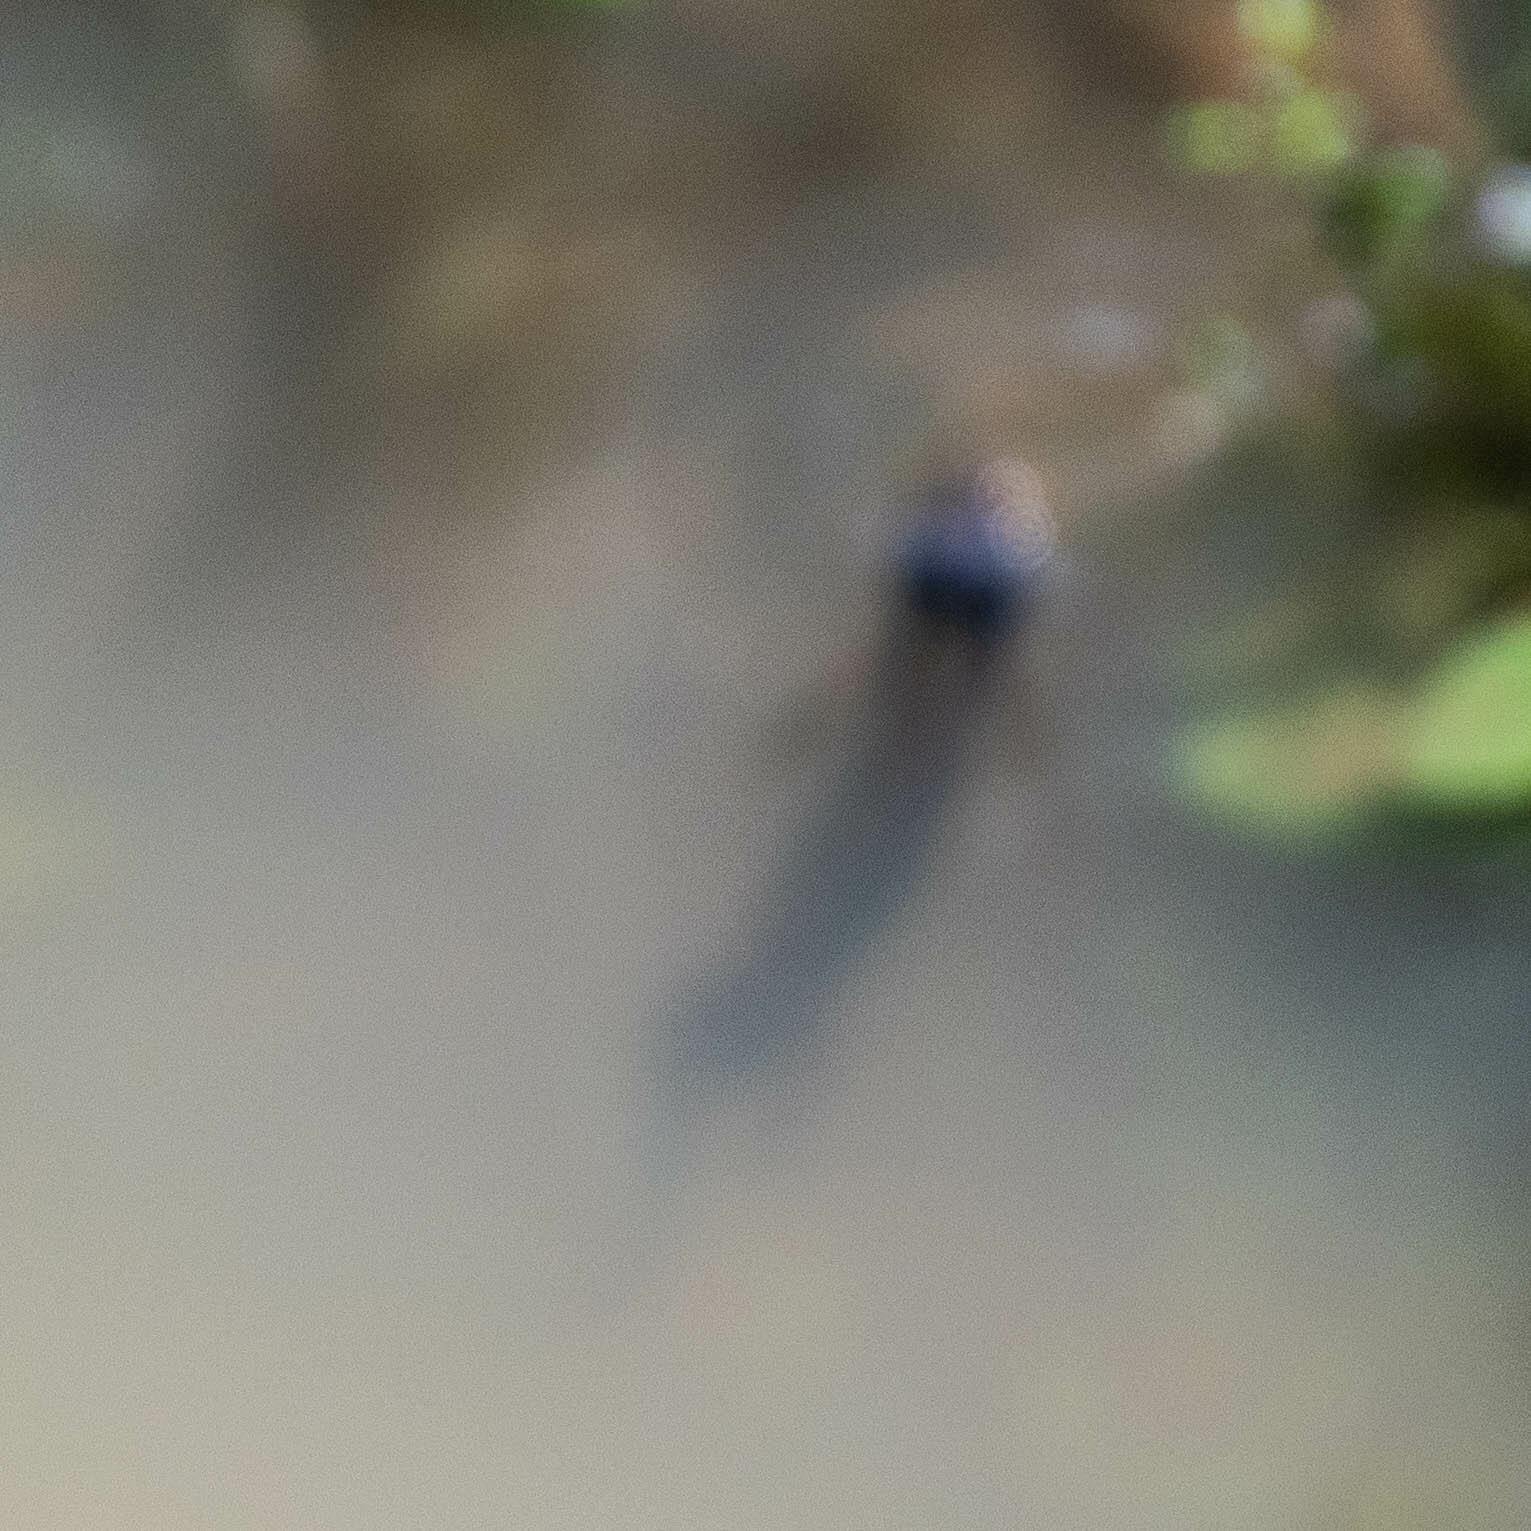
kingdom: Animalia
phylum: Chordata
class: Amphibia
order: Caudata
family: Salamandridae
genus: Ichthyosaura
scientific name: Ichthyosaura alpestris
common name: Alpine newt
